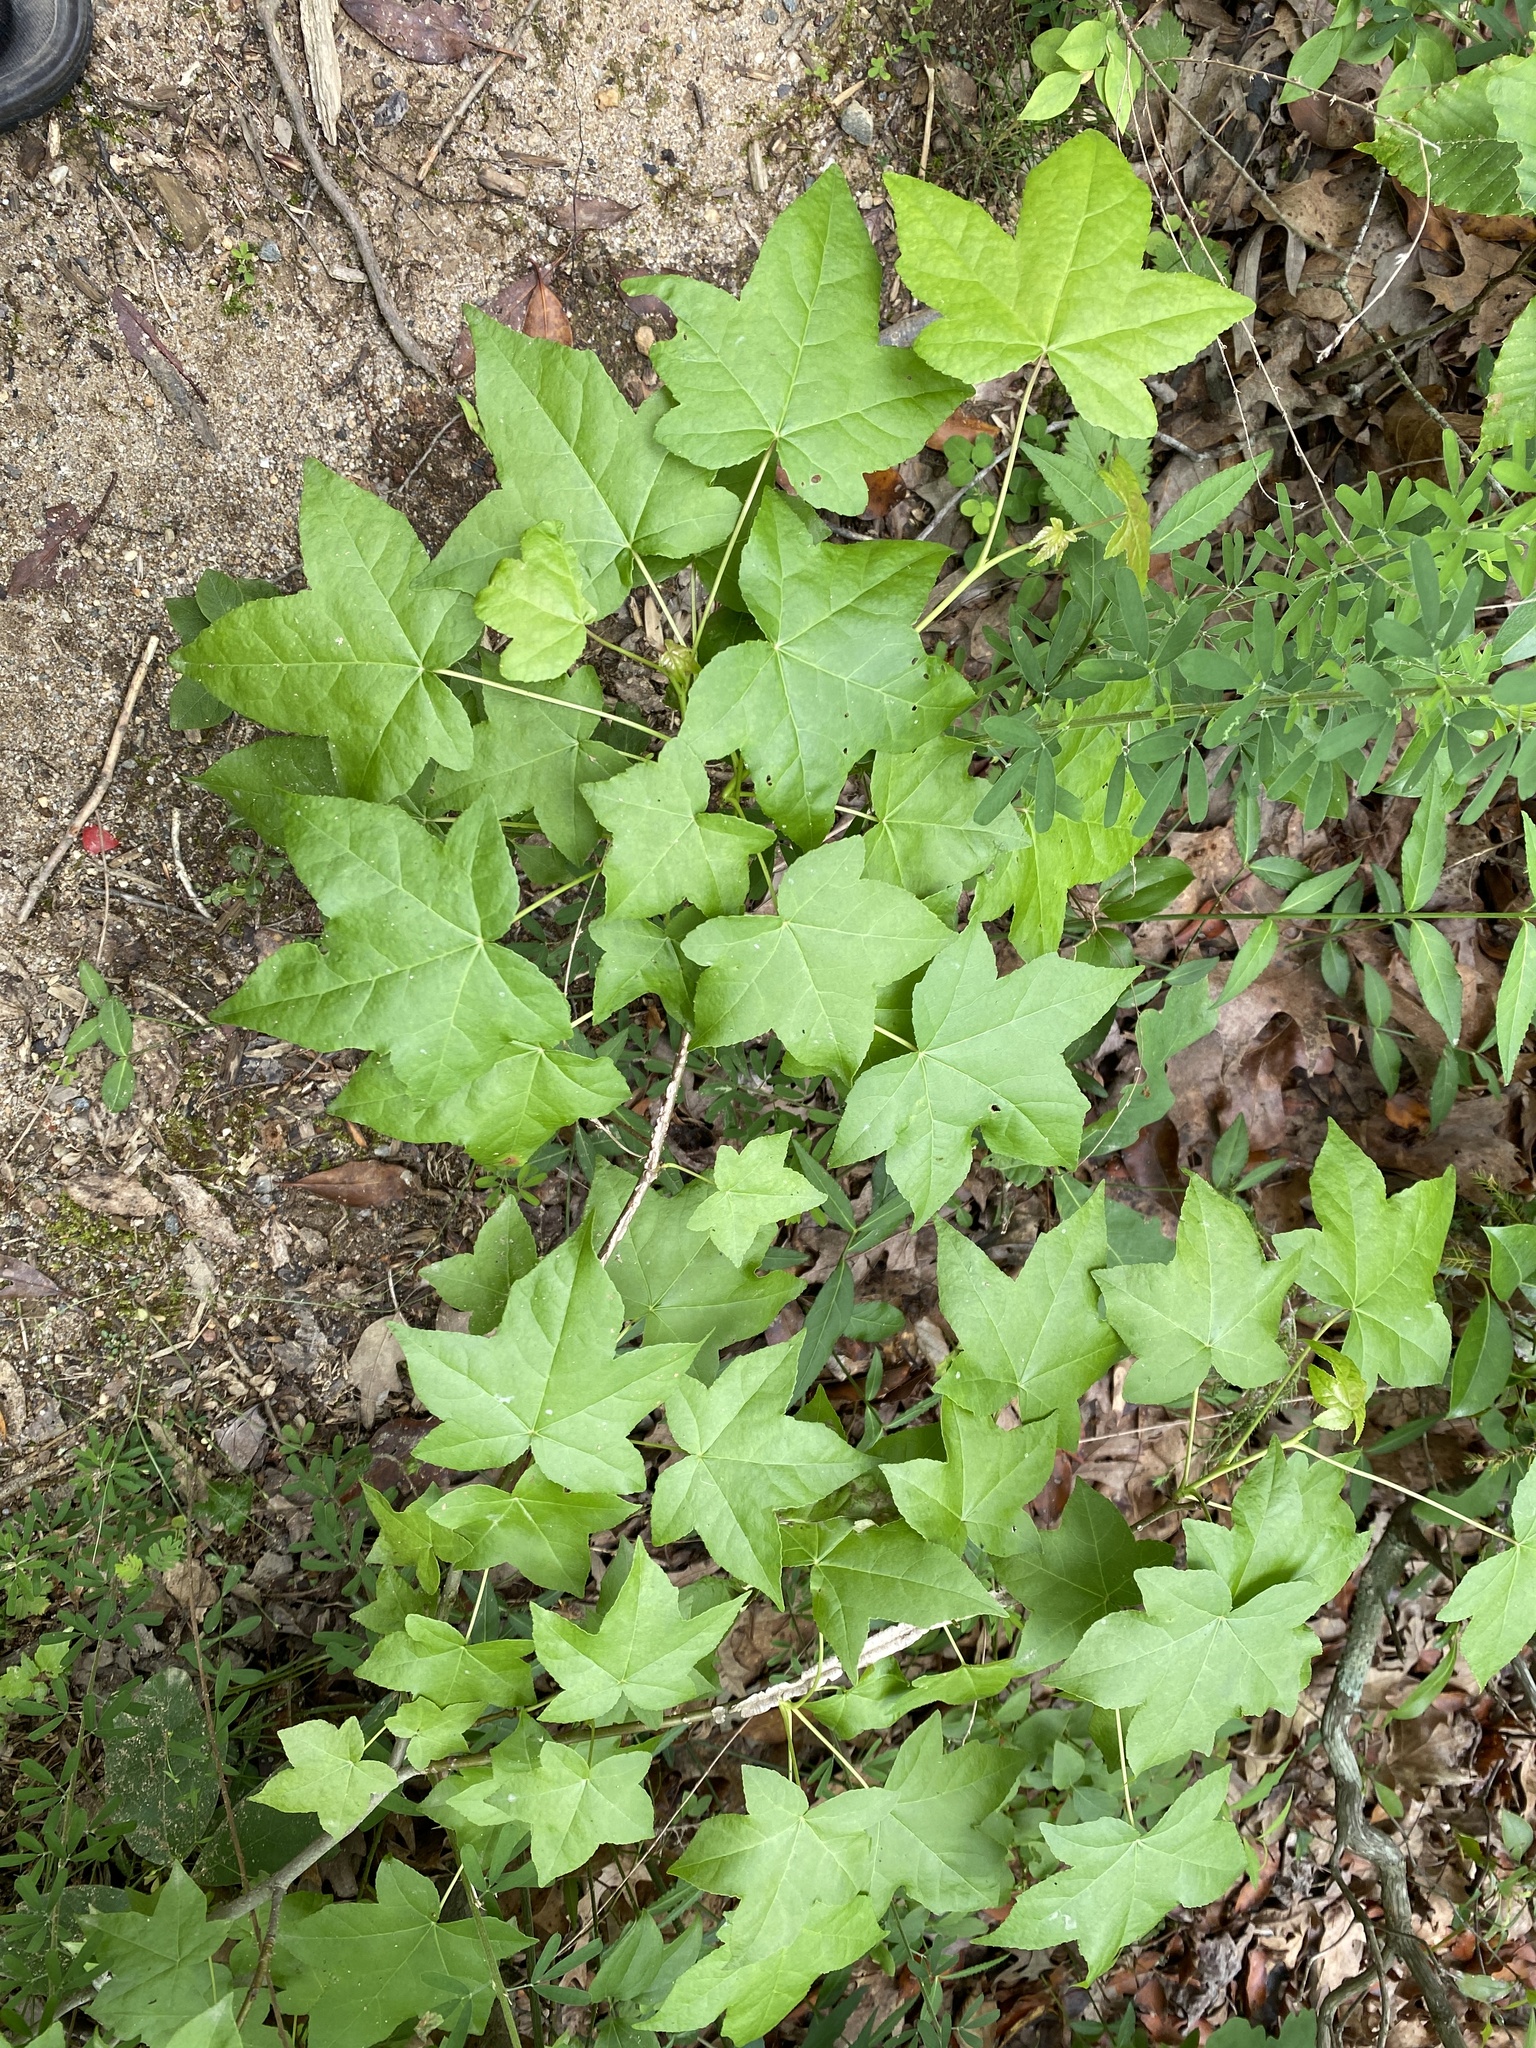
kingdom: Plantae
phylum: Tracheophyta
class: Magnoliopsida
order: Saxifragales
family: Altingiaceae
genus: Liquidambar
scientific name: Liquidambar styraciflua
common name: Sweet gum
